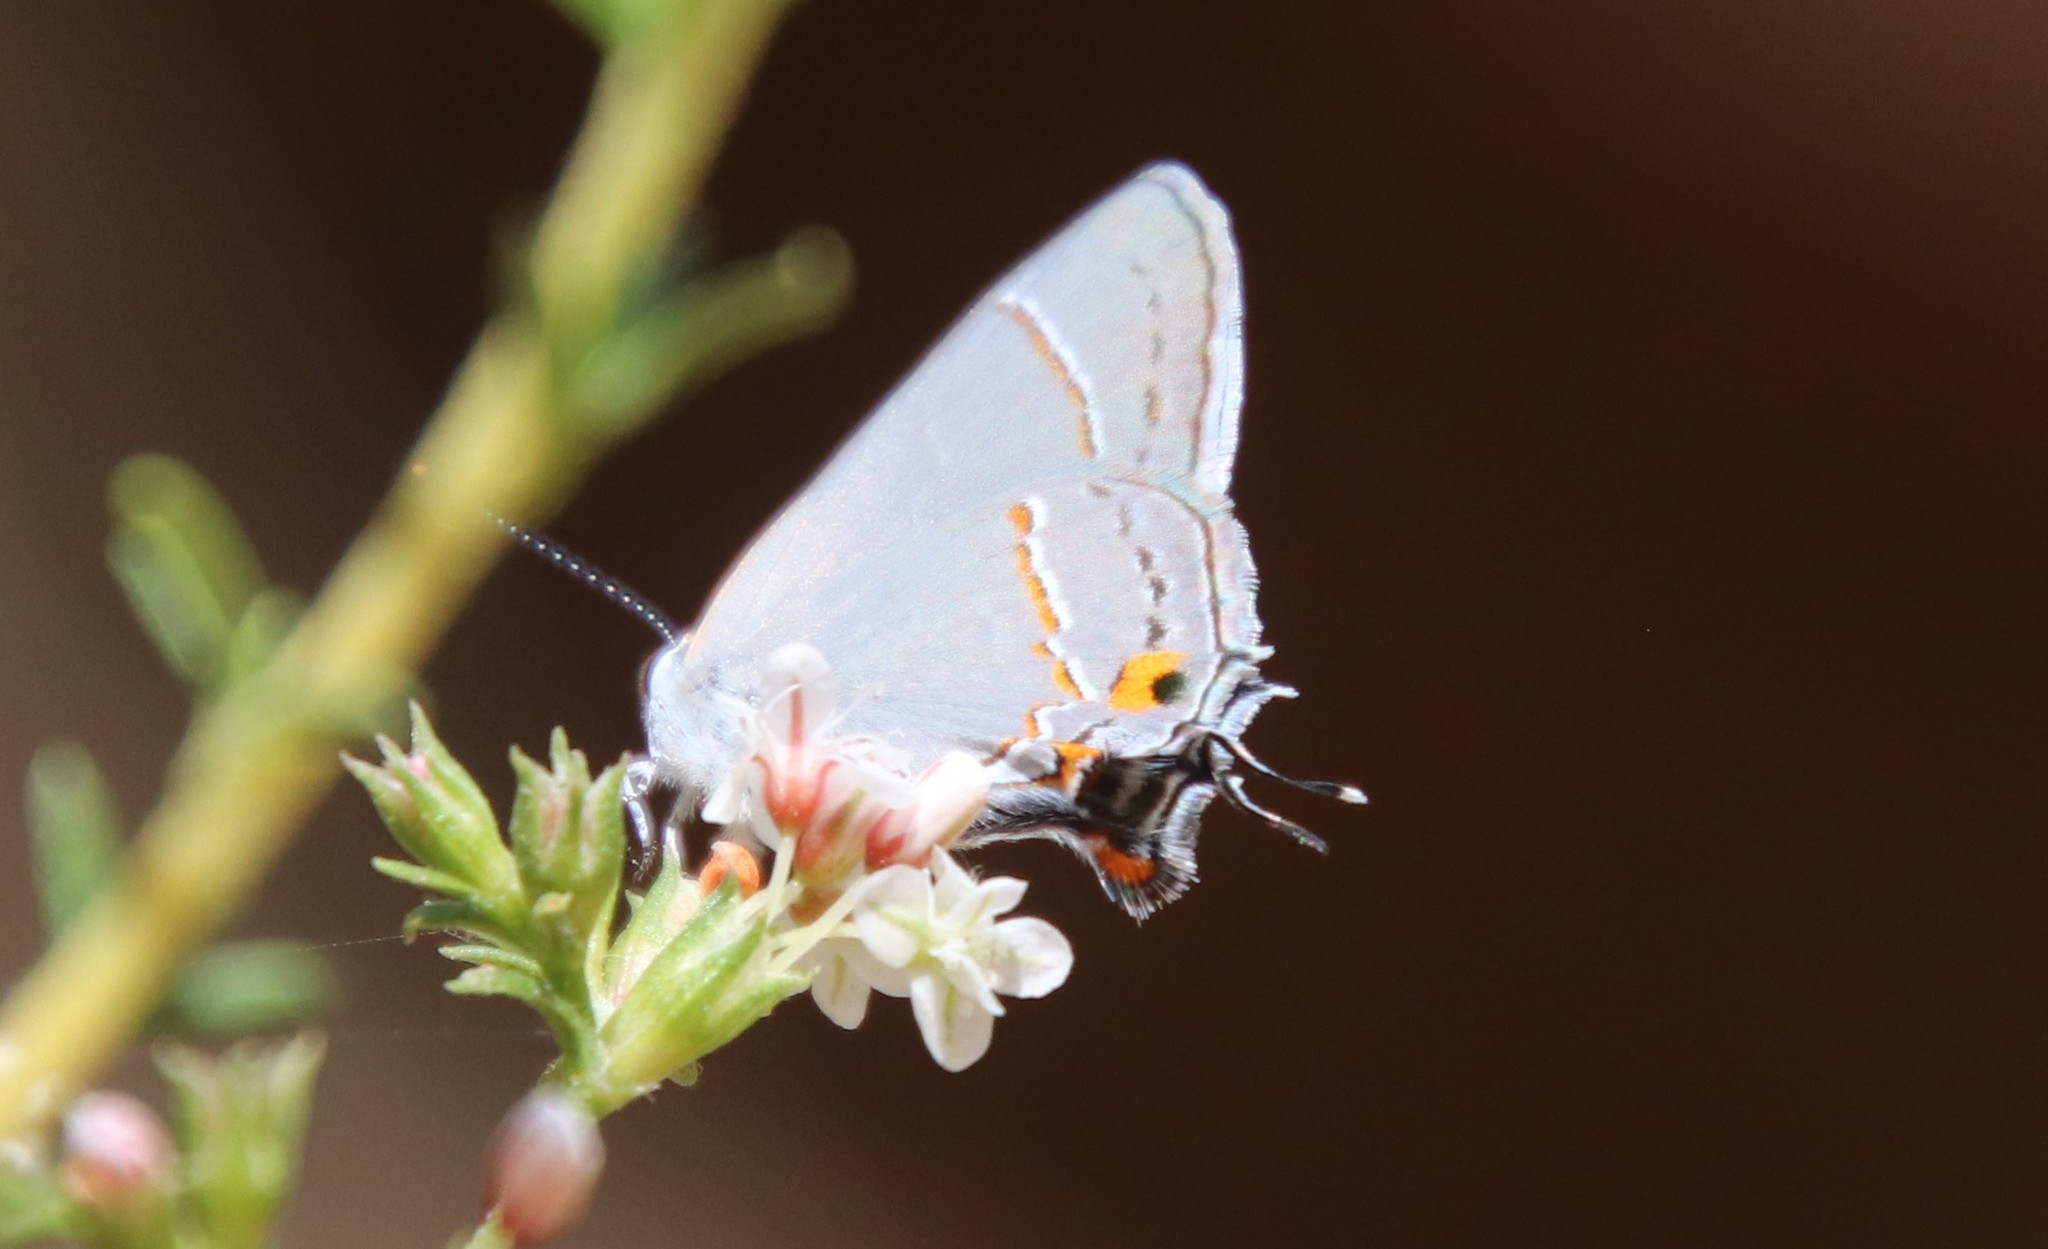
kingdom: Animalia
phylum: Arthropoda
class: Insecta
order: Lepidoptera
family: Lycaenidae
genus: Strymon
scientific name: Strymon melinus
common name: Gray hairstreak
